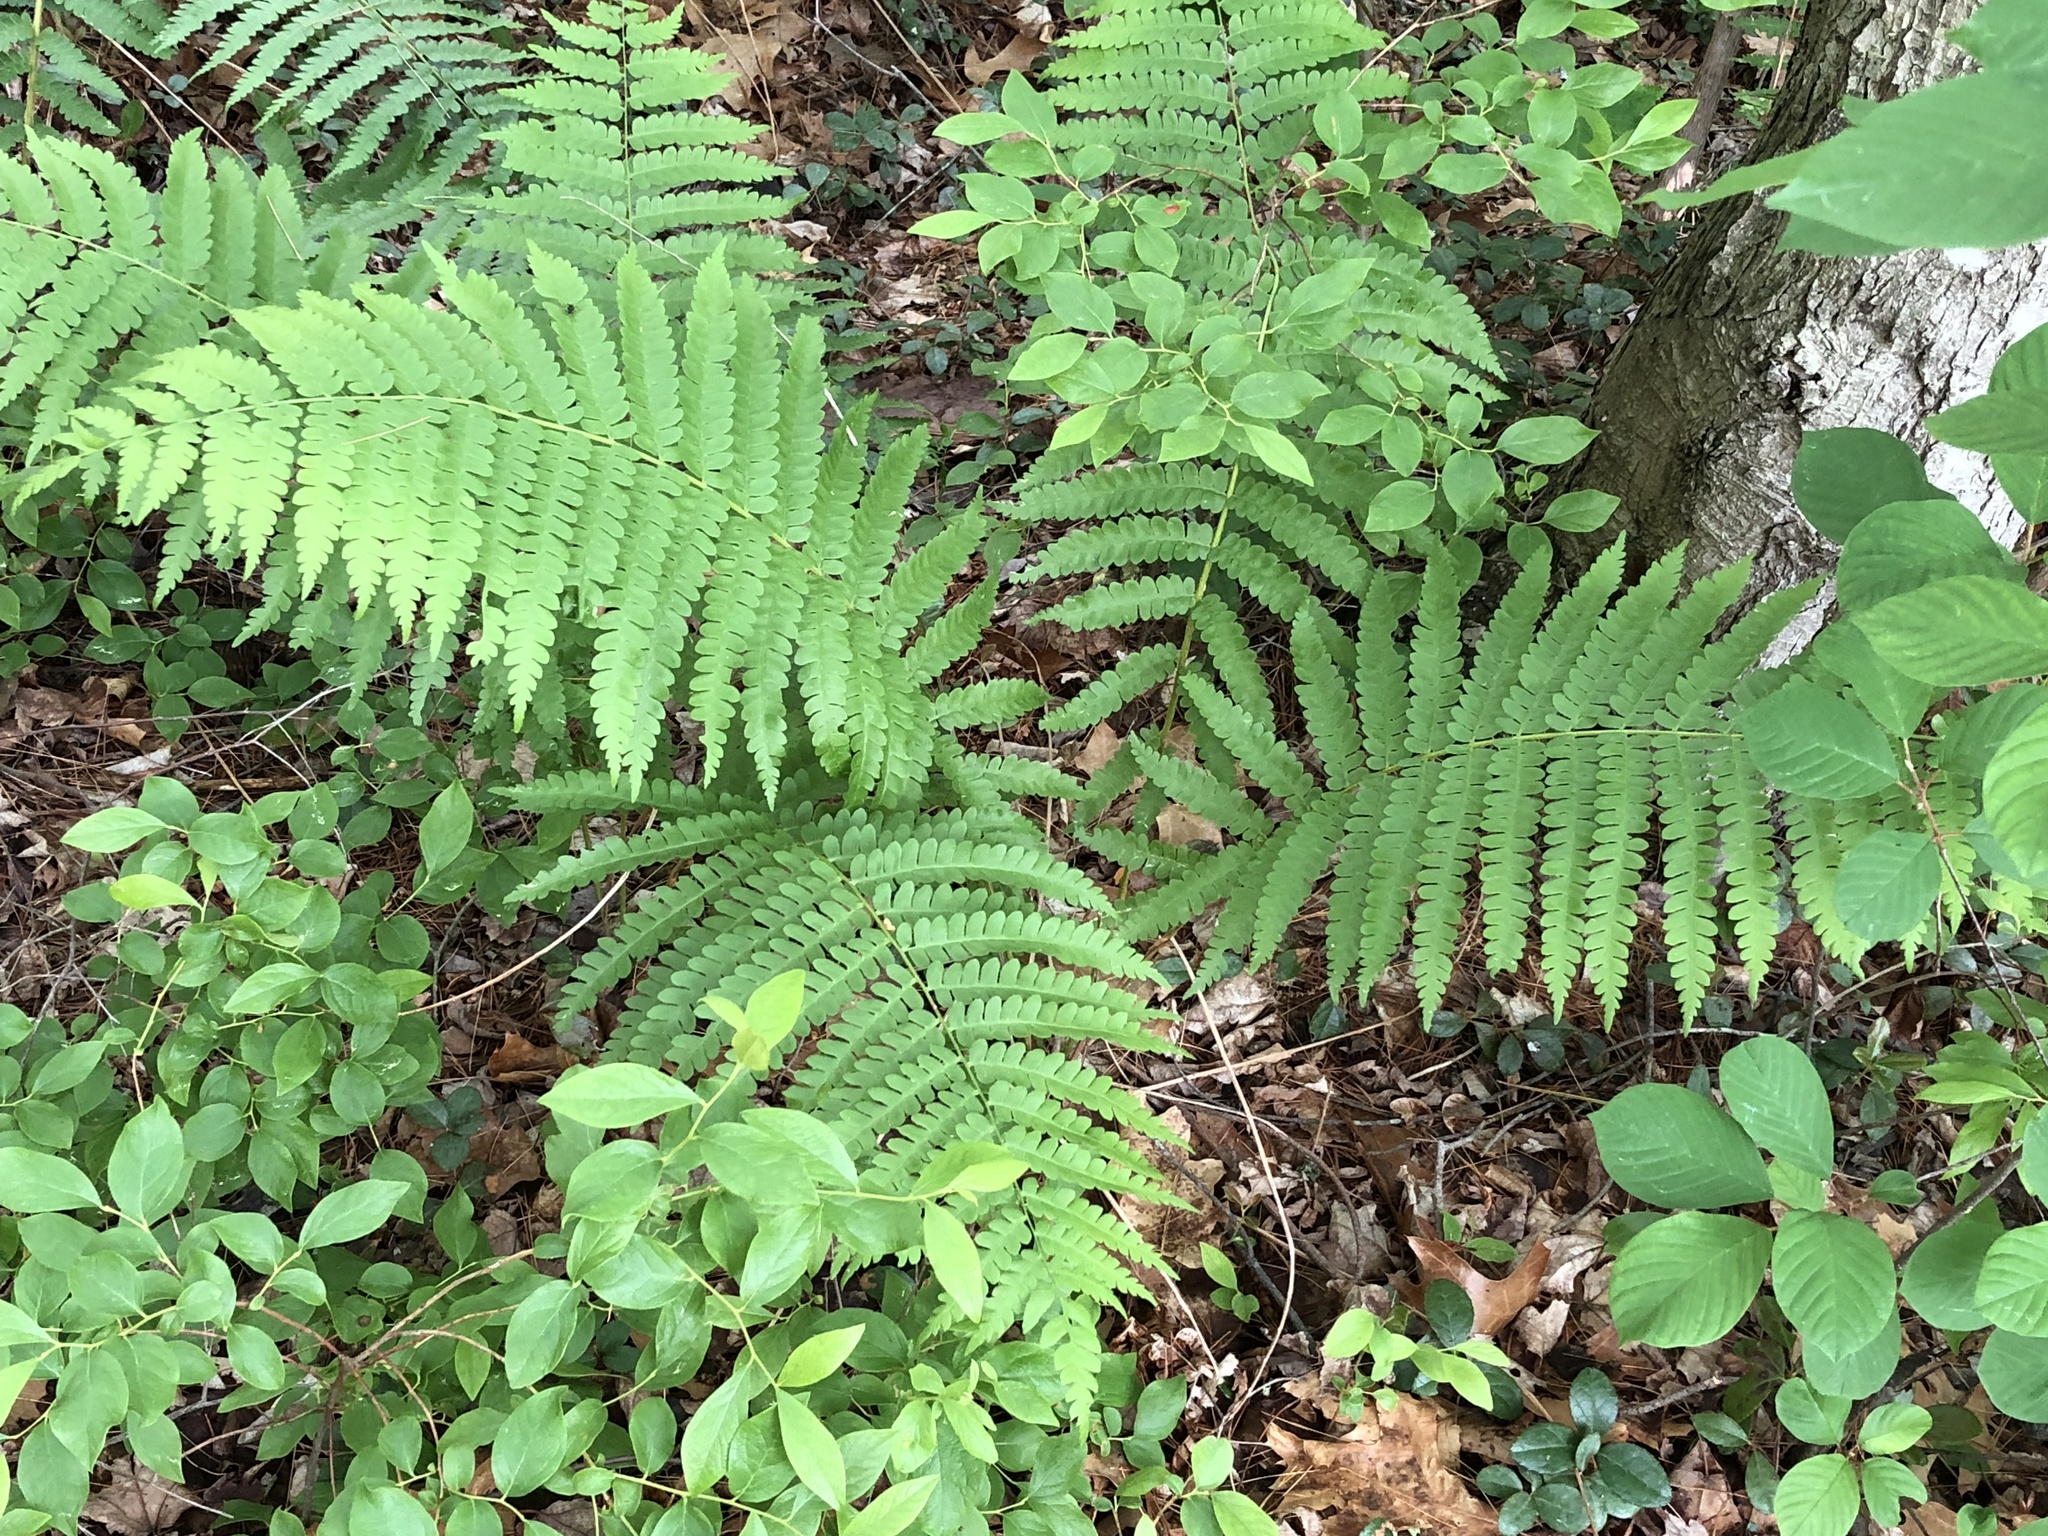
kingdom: Plantae
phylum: Tracheophyta
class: Polypodiopsida
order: Osmundales
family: Osmundaceae
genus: Osmundastrum
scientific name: Osmundastrum cinnamomeum
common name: Cinnamon fern
